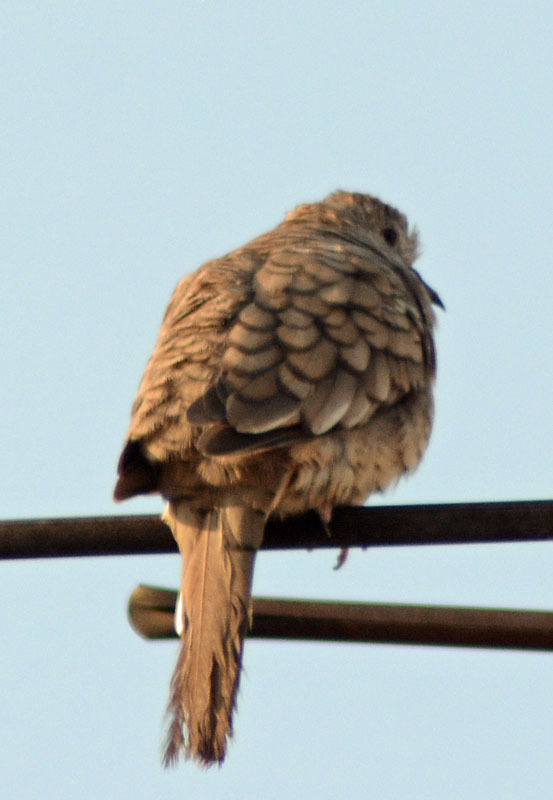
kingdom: Animalia
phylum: Chordata
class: Aves
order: Columbiformes
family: Columbidae
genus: Columbina
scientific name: Columbina inca
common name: Inca dove
